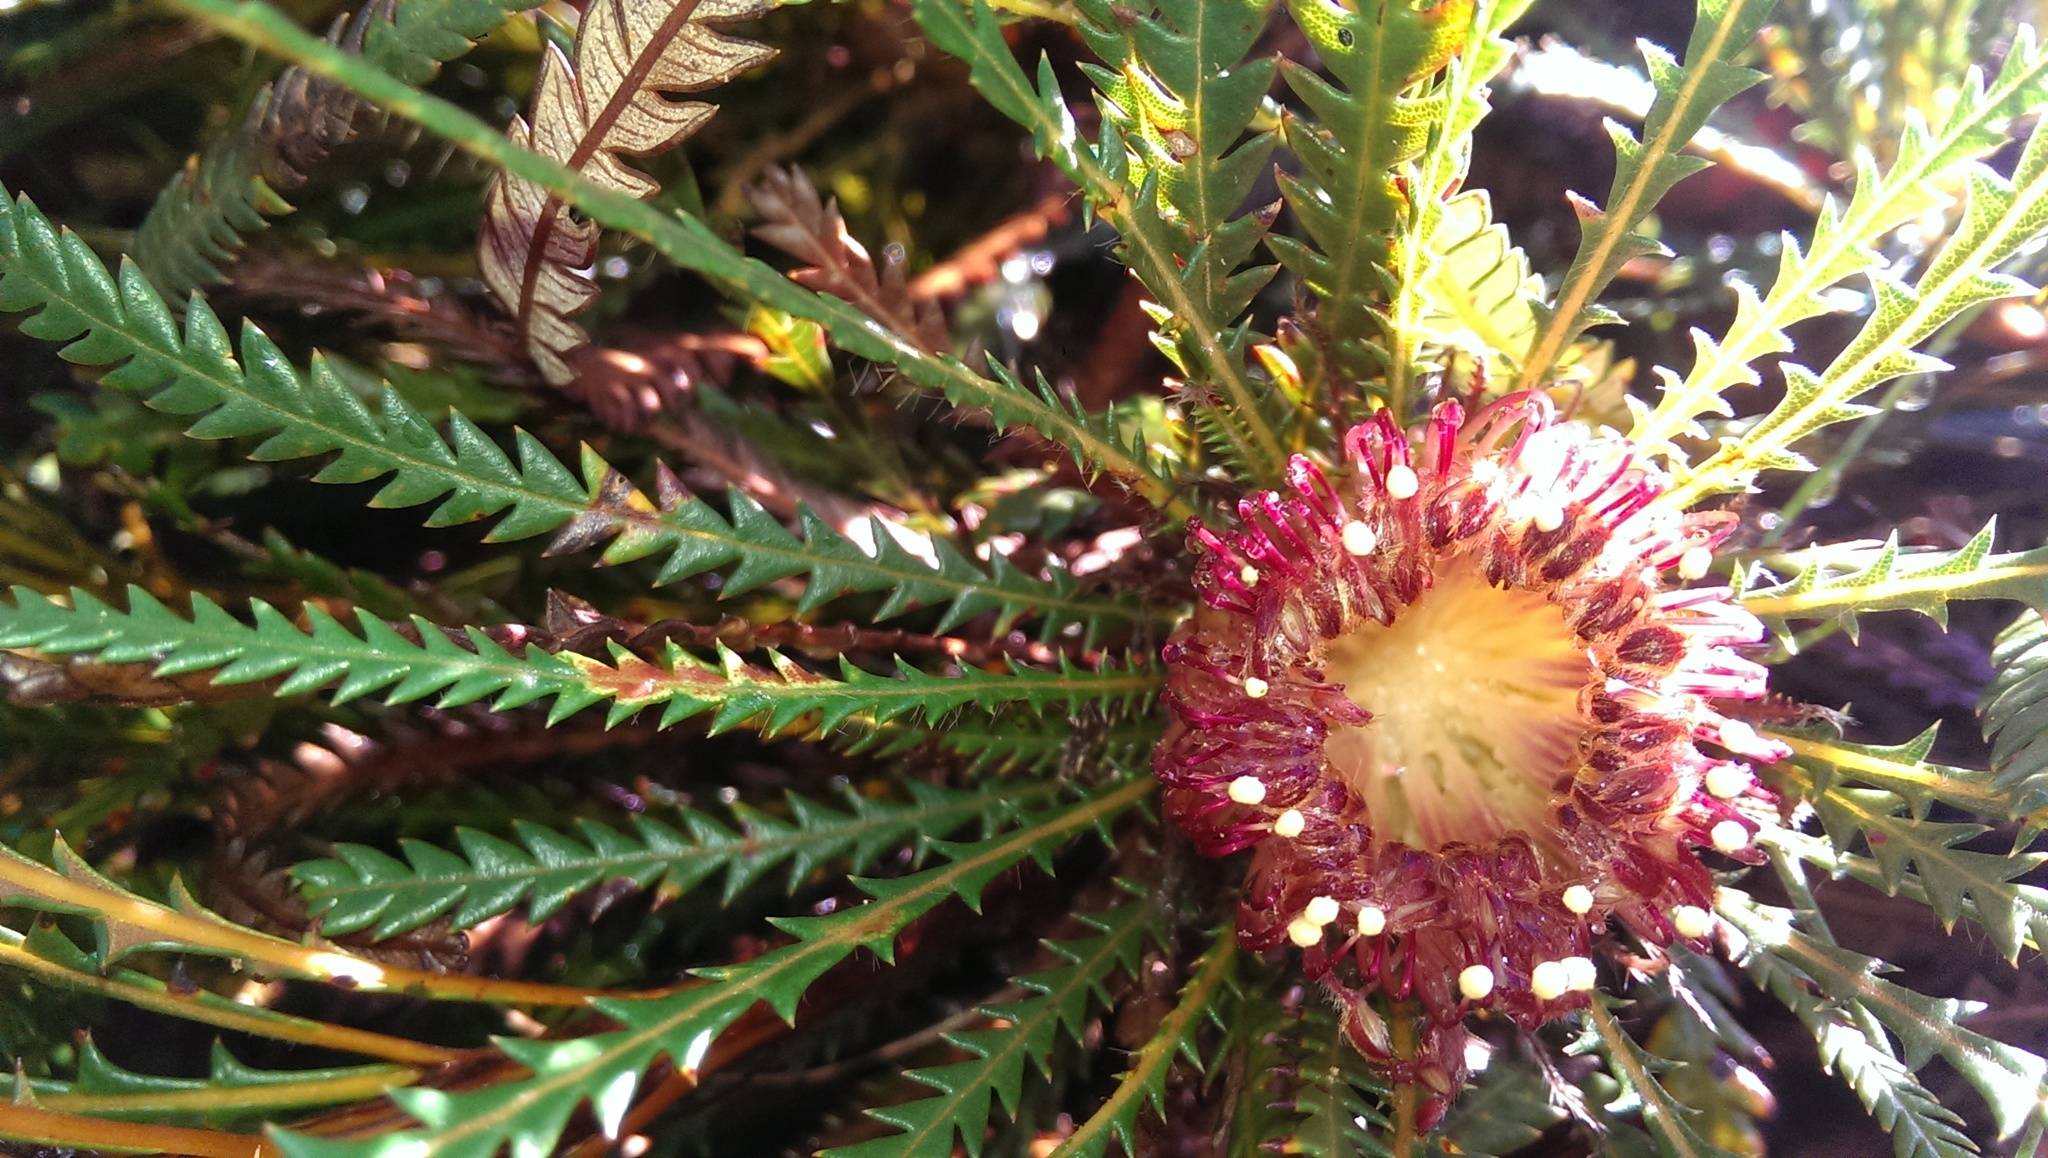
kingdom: Plantae
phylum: Tracheophyta
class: Magnoliopsida
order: Proteales
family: Proteaceae
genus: Banksia
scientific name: Banksia dallanneyi
